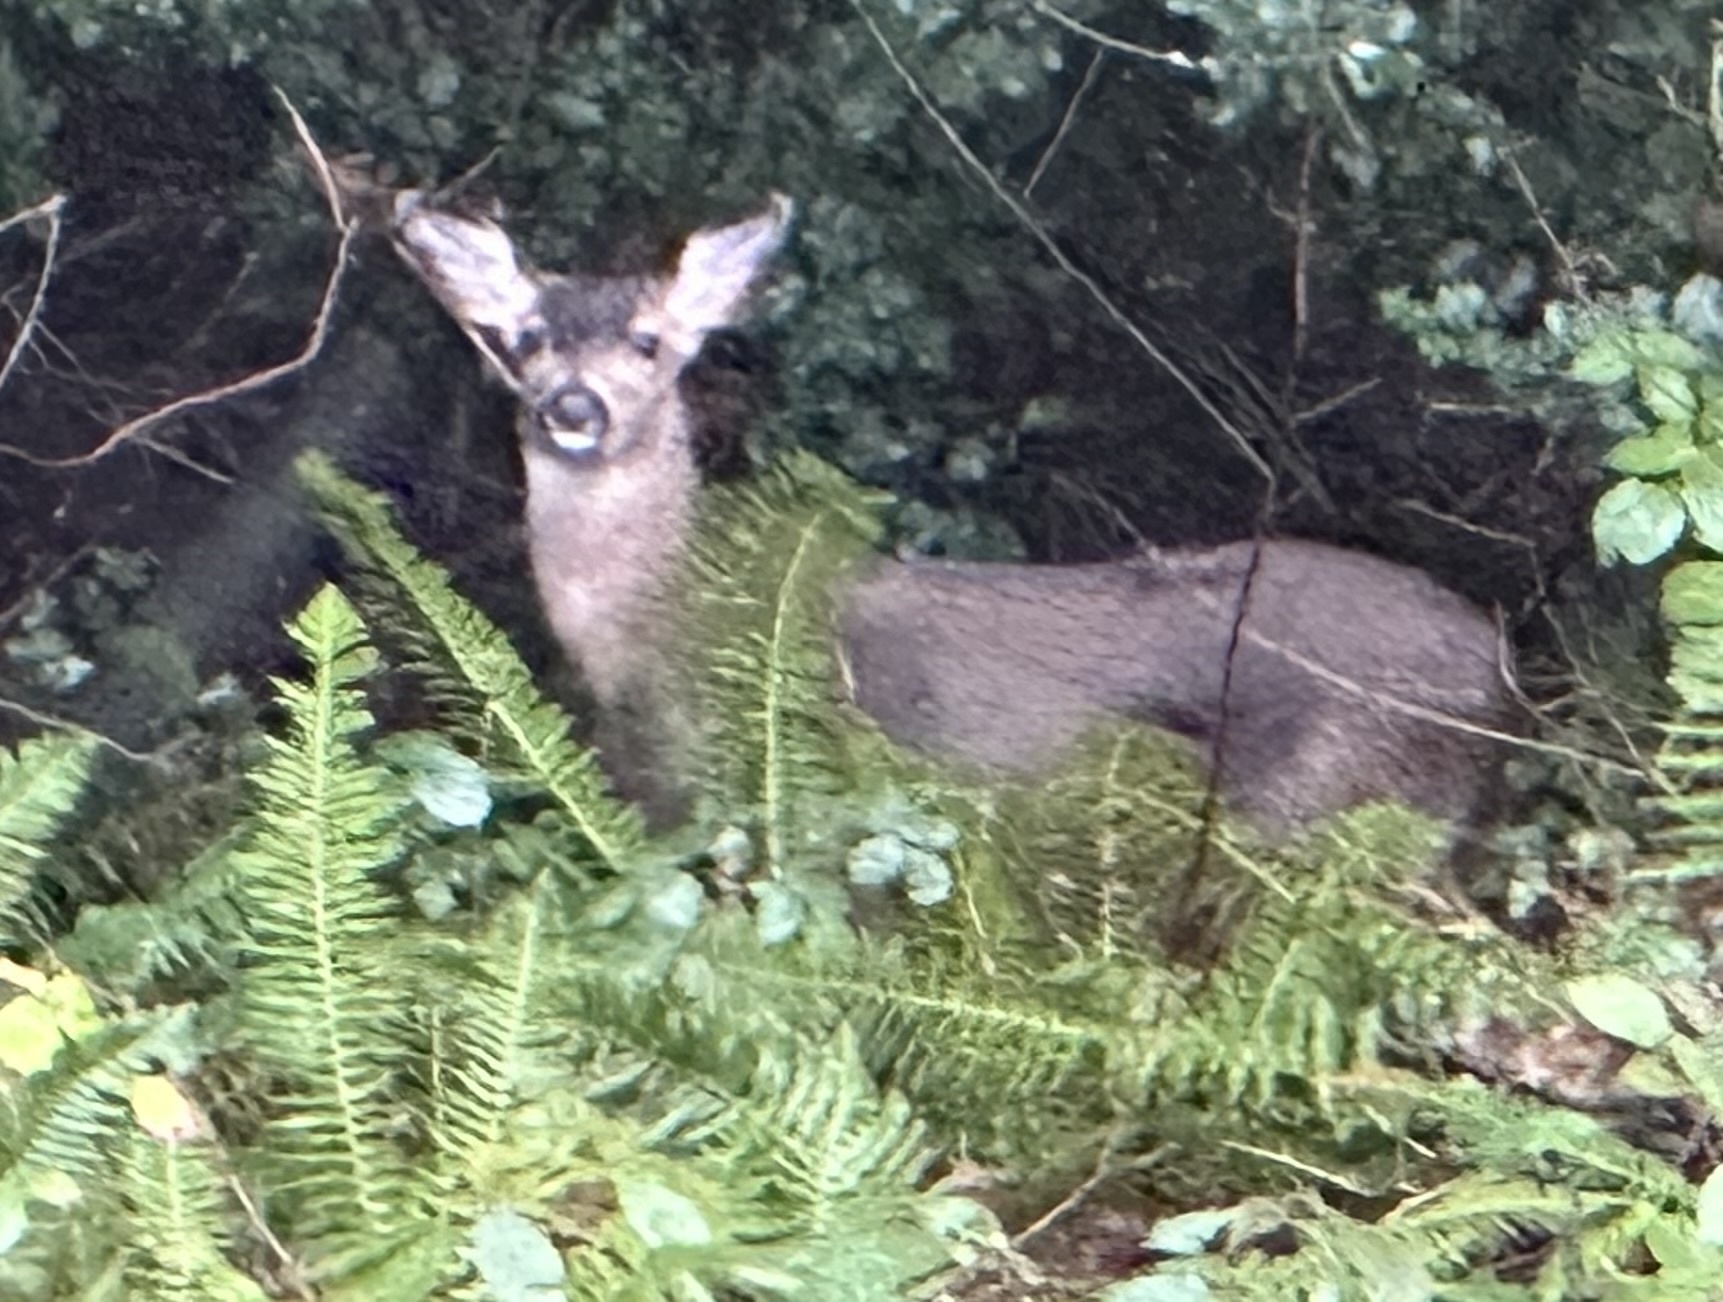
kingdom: Animalia
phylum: Chordata
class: Mammalia
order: Artiodactyla
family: Cervidae
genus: Odocoileus
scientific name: Odocoileus hemionus
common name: Mule deer
